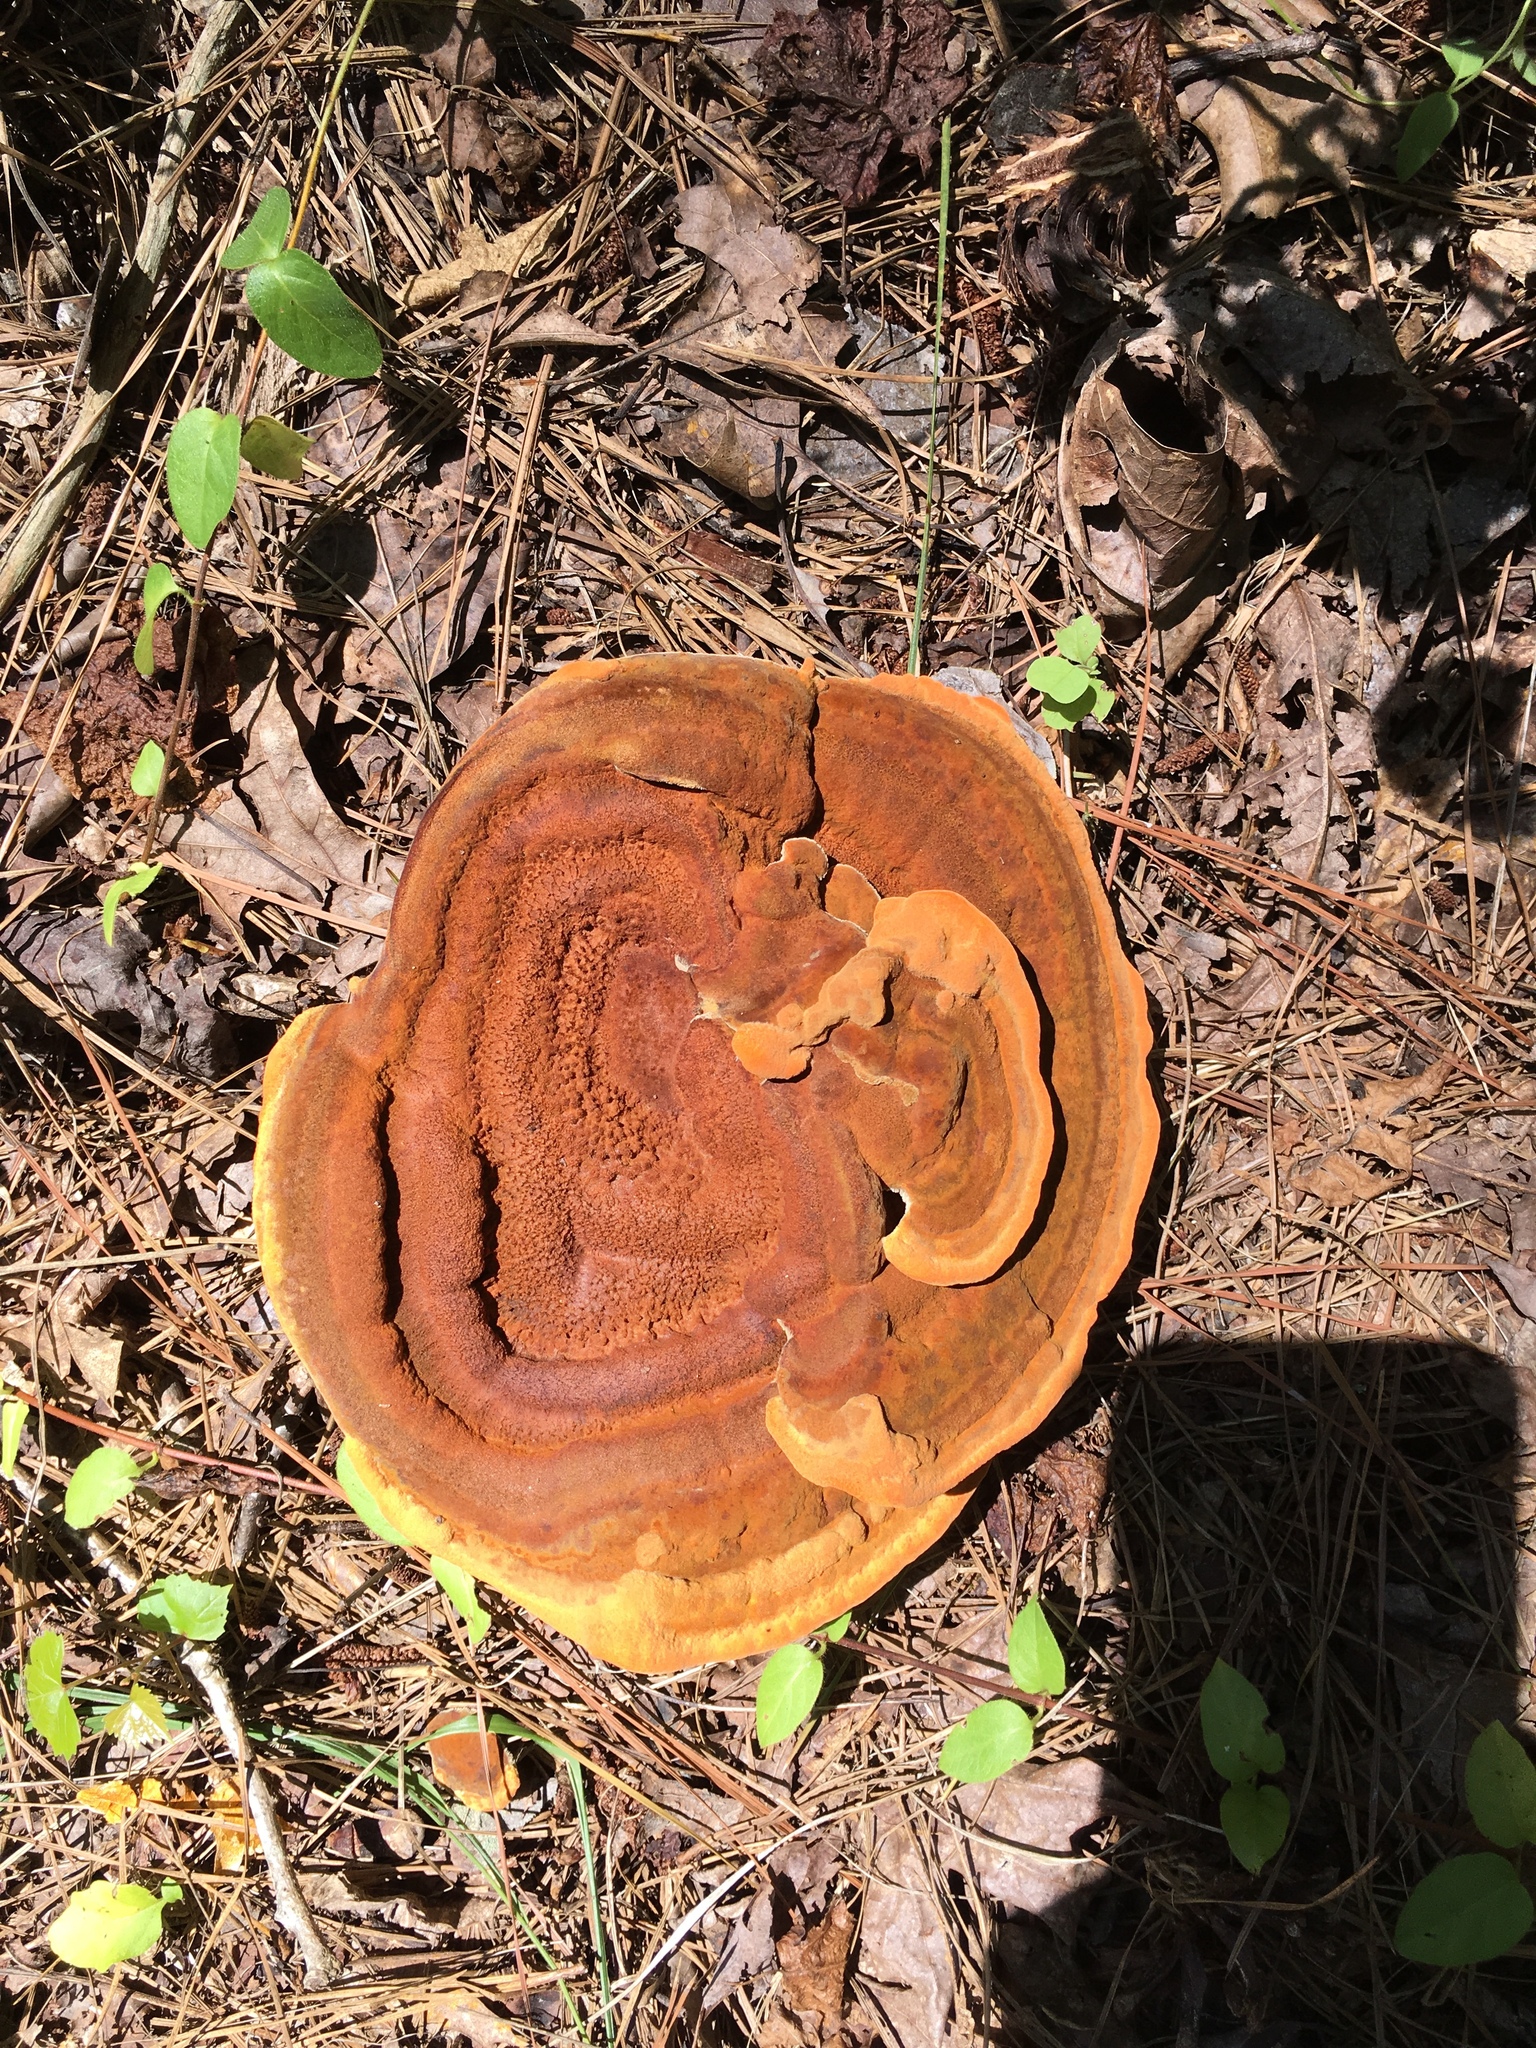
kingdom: Fungi
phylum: Basidiomycota
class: Agaricomycetes
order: Polyporales
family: Laetiporaceae
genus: Phaeolus
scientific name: Phaeolus schweinitzii
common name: Dyer's mazegill
